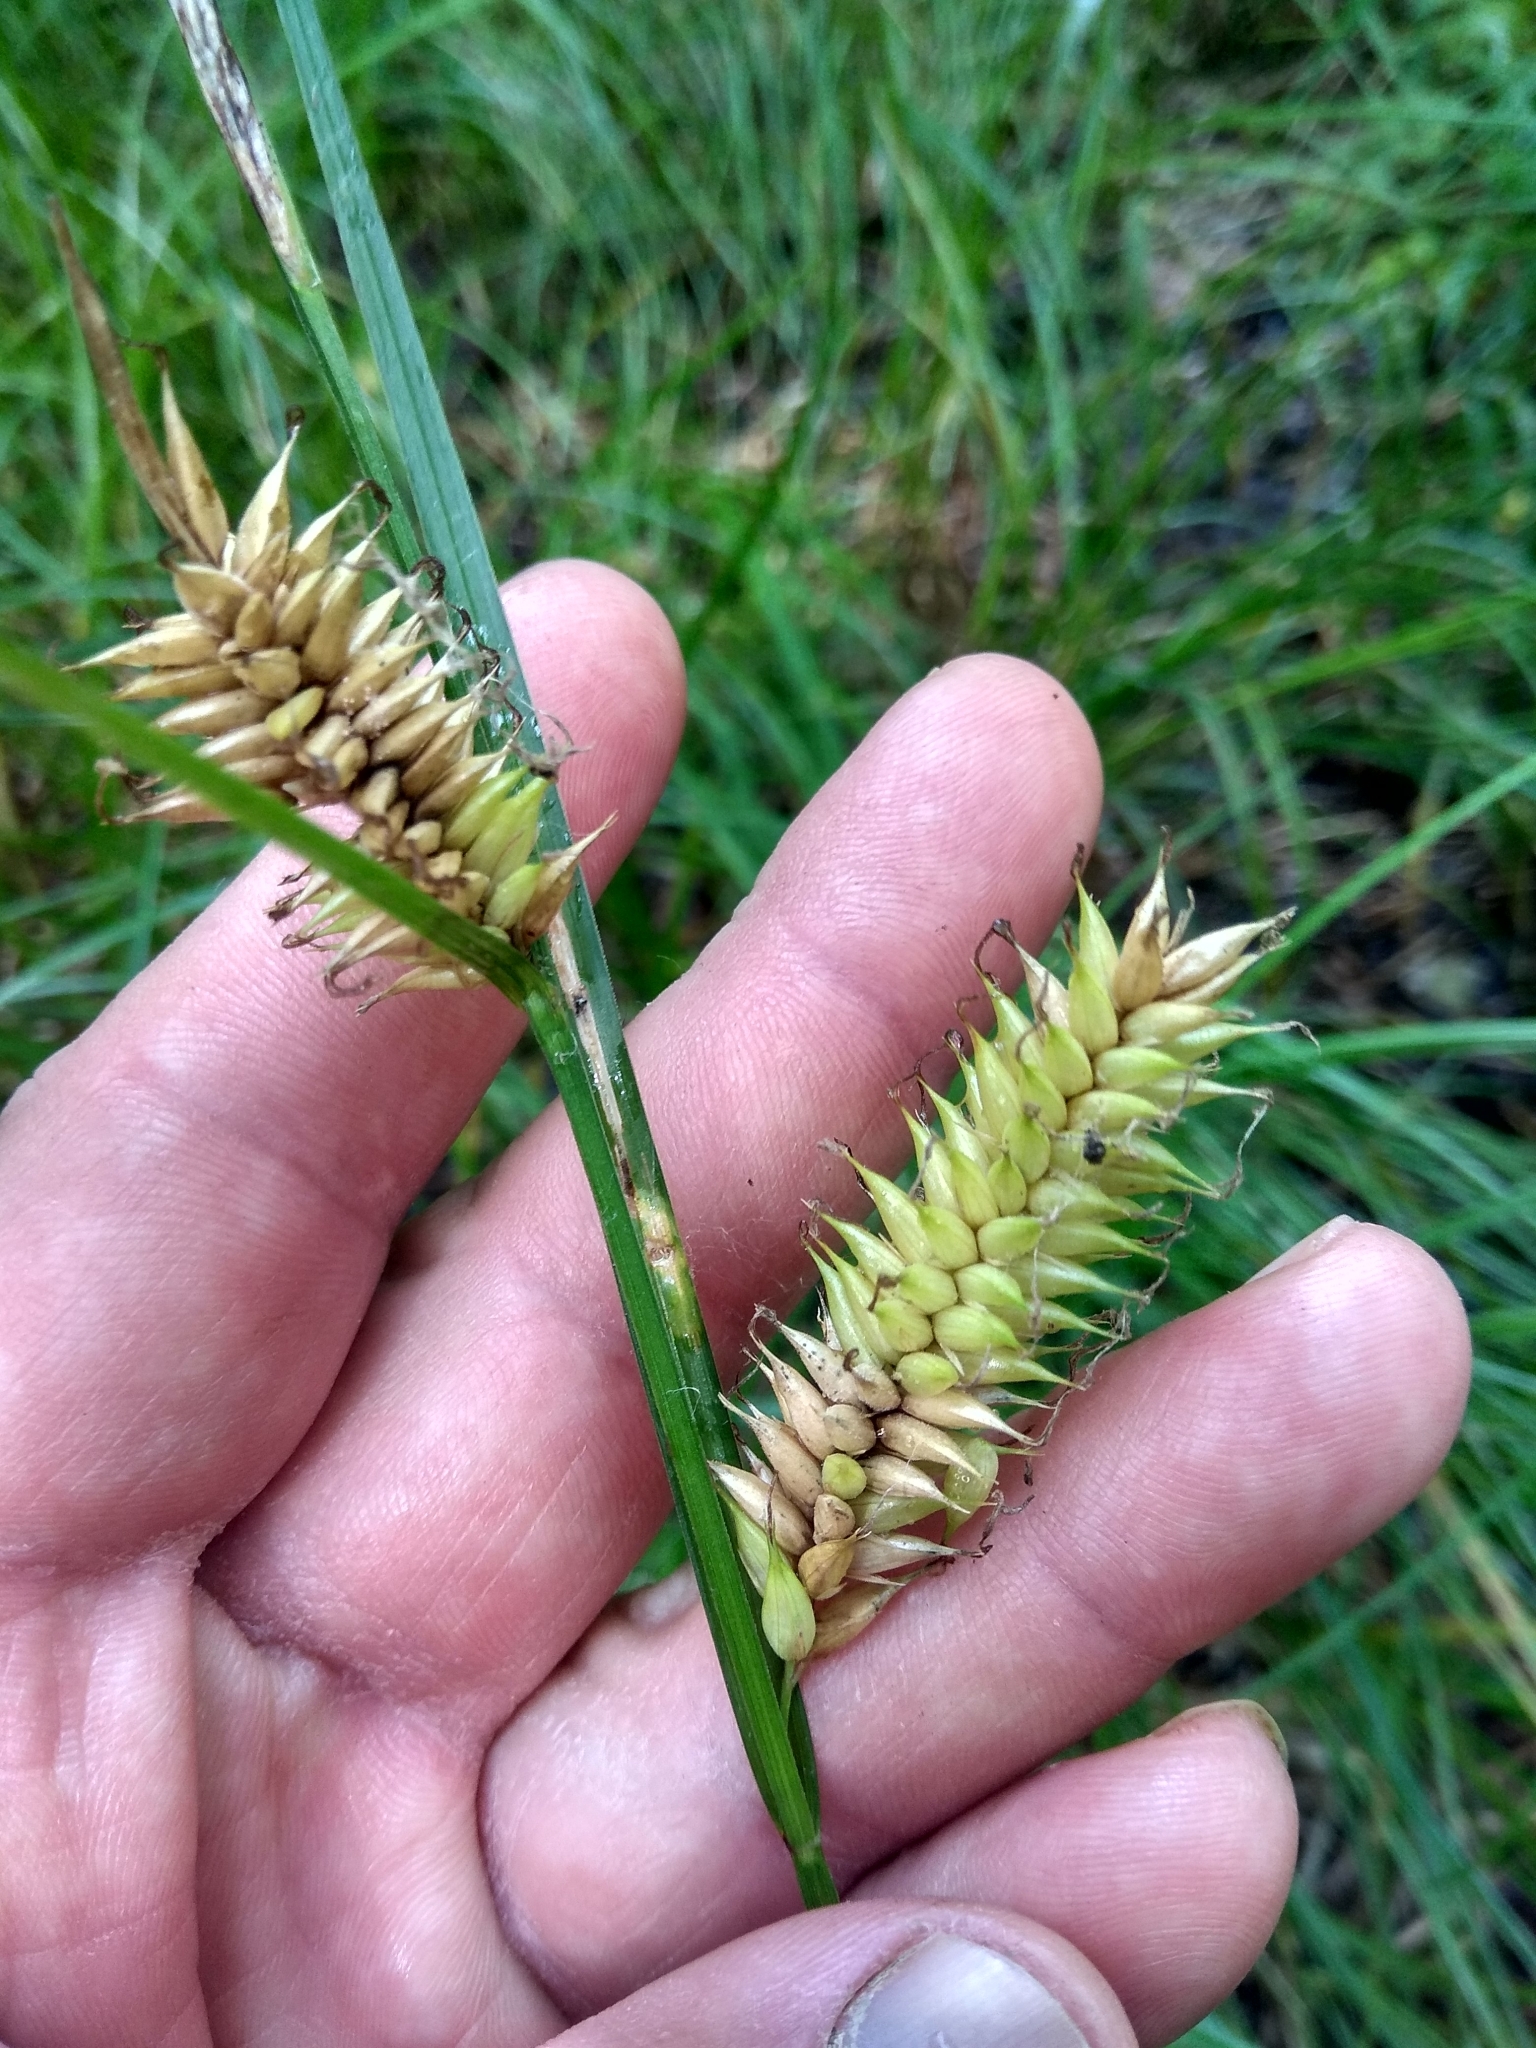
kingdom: Plantae
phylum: Tracheophyta
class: Liliopsida
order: Poales
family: Cyperaceae
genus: Carex
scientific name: Carex vesicaria
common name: Bladder-sedge
